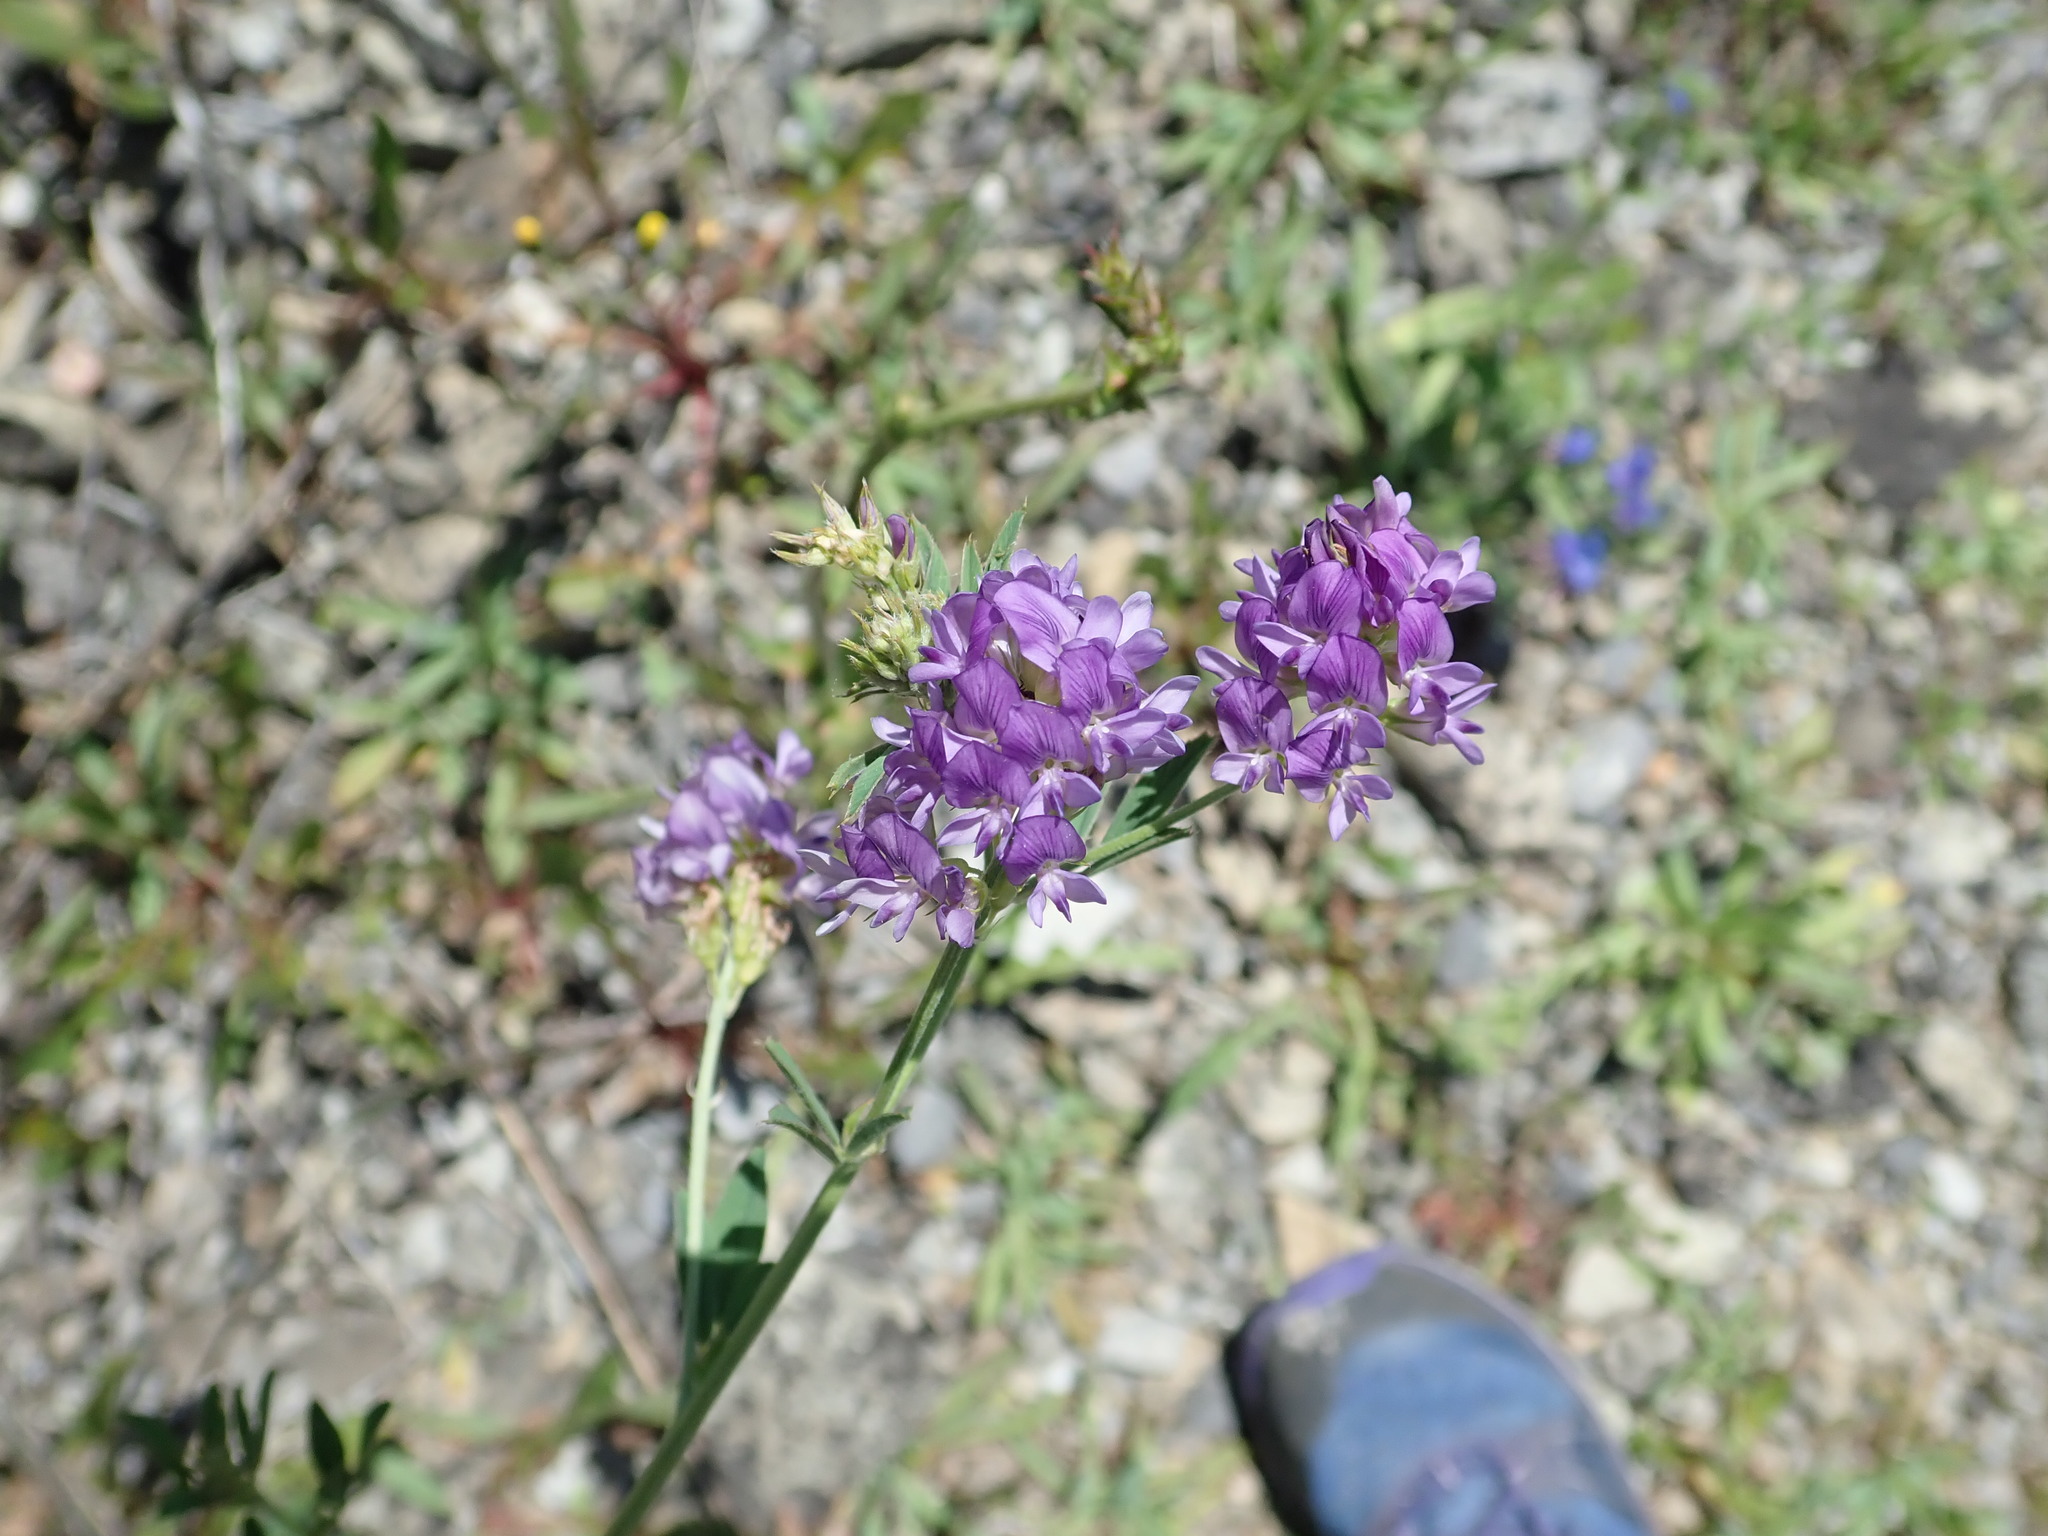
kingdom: Plantae
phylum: Tracheophyta
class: Magnoliopsida
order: Fabales
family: Fabaceae
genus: Medicago
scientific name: Medicago sativa
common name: Alfalfa
